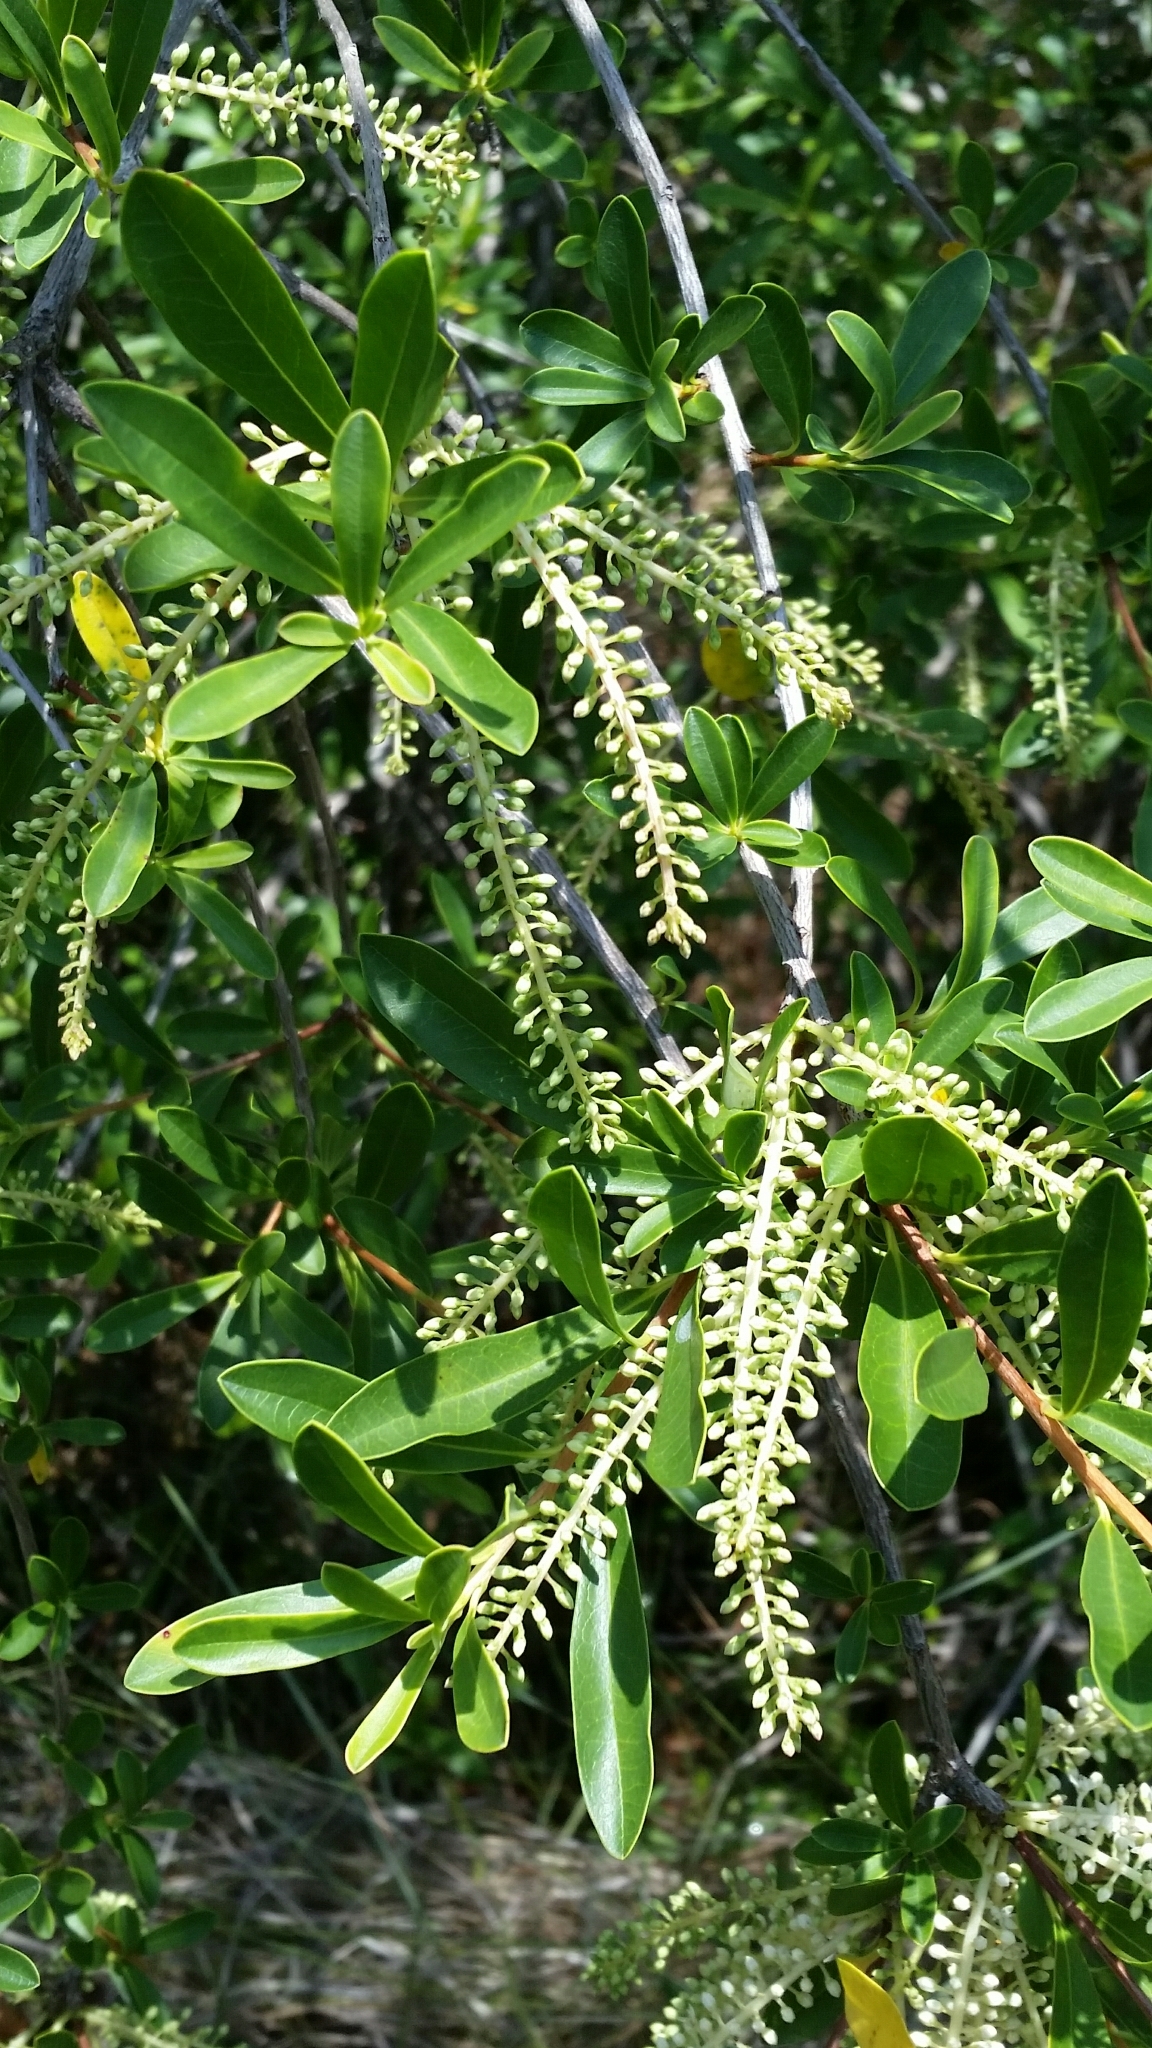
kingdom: Plantae
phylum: Tracheophyta
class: Magnoliopsida
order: Ericales
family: Cyrillaceae
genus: Cyrilla
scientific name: Cyrilla racemiflora
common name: Black titi
